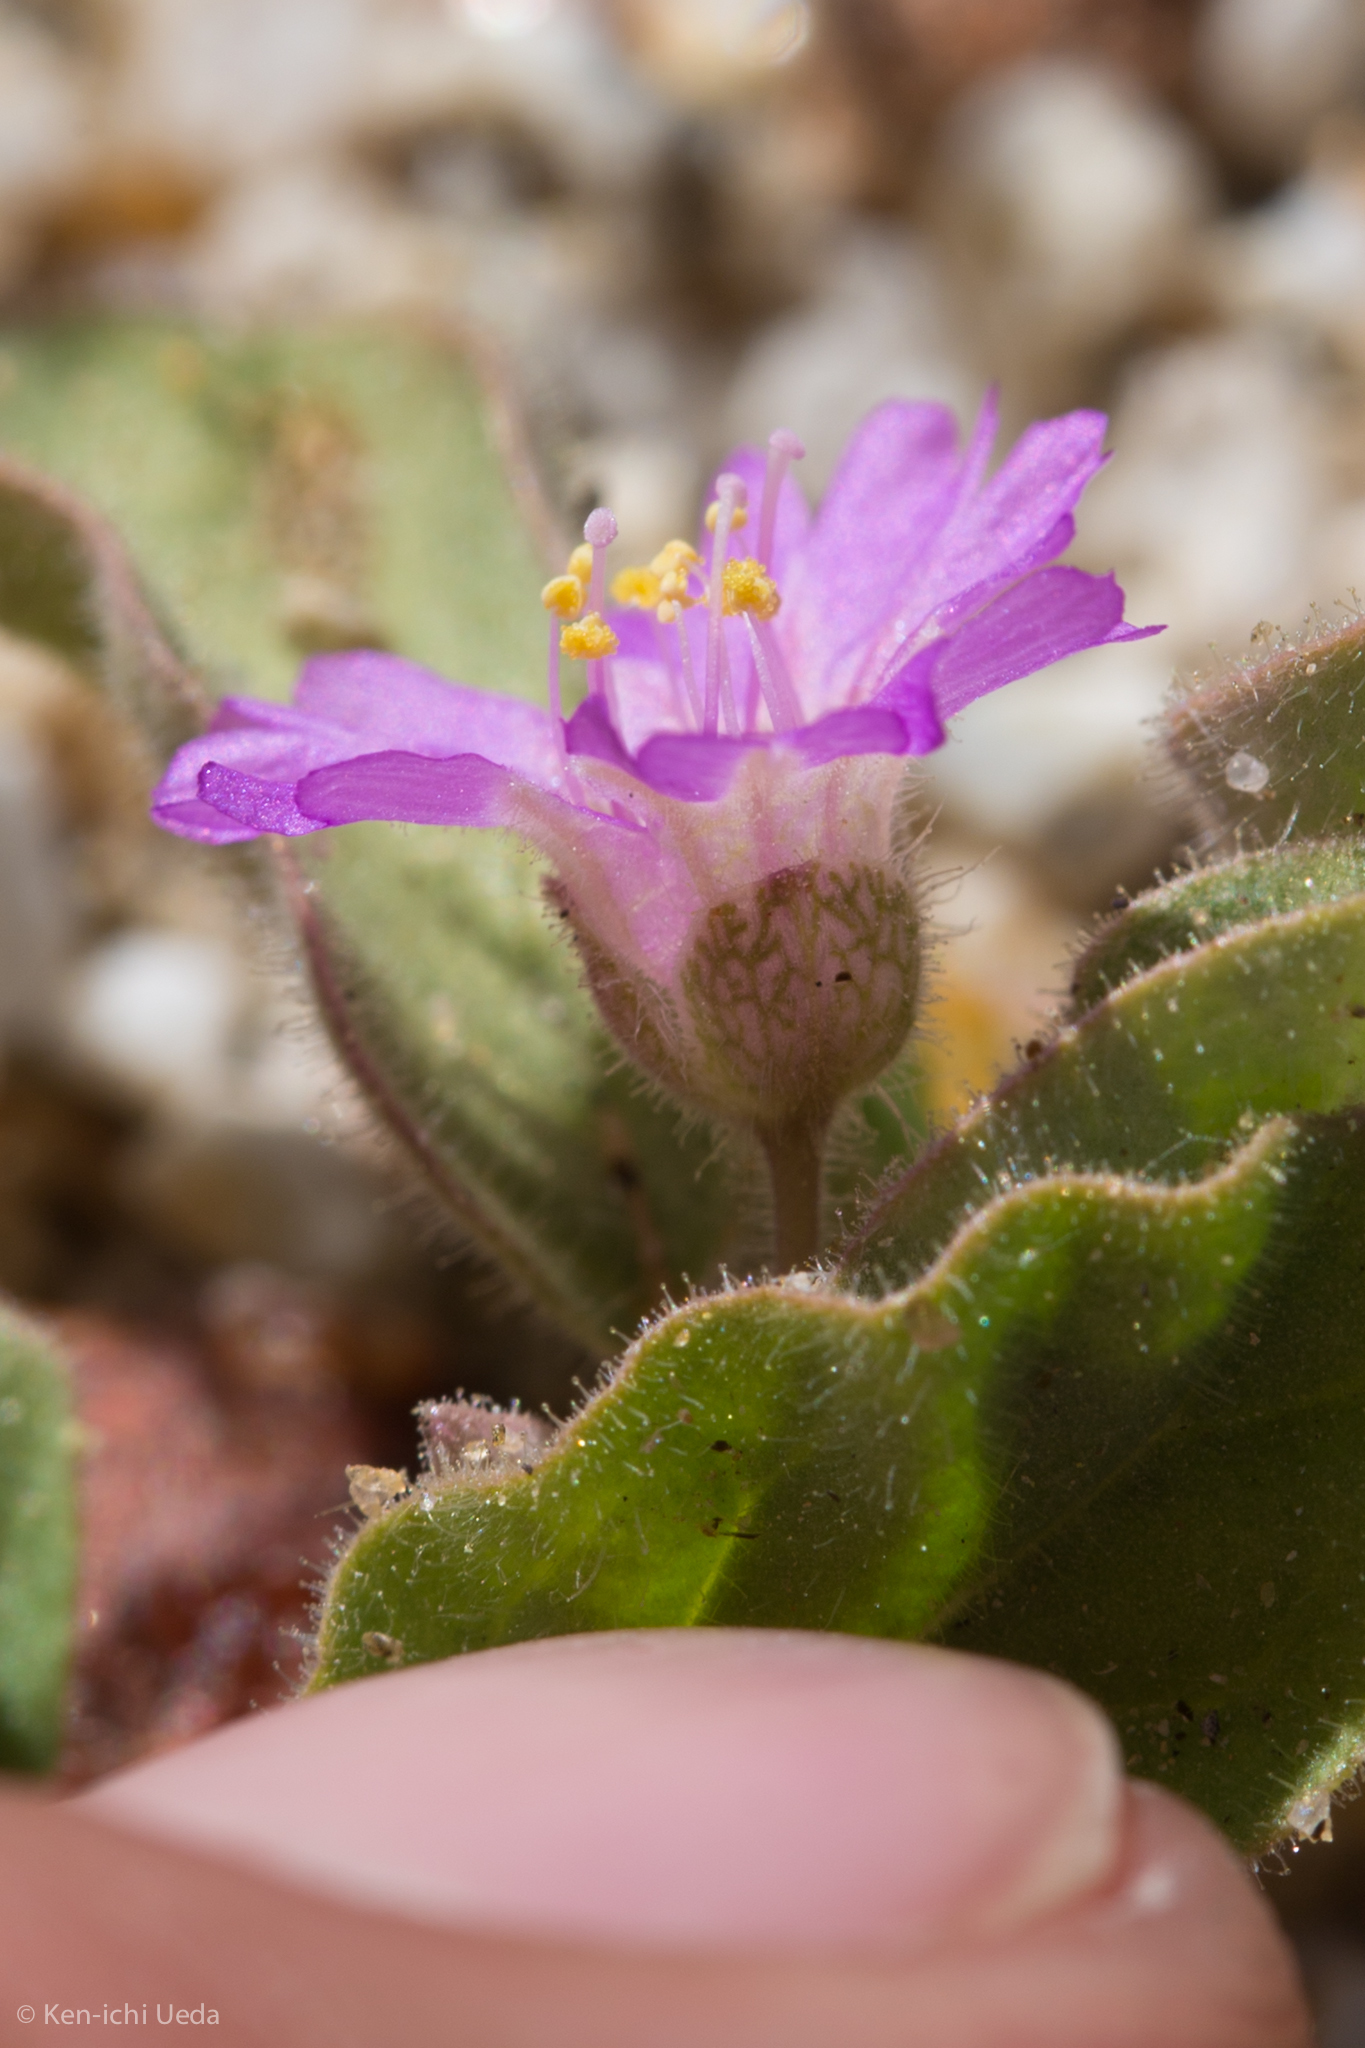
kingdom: Plantae
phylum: Tracheophyta
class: Magnoliopsida
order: Caryophyllales
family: Nyctaginaceae
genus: Allionia
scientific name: Allionia incarnata
